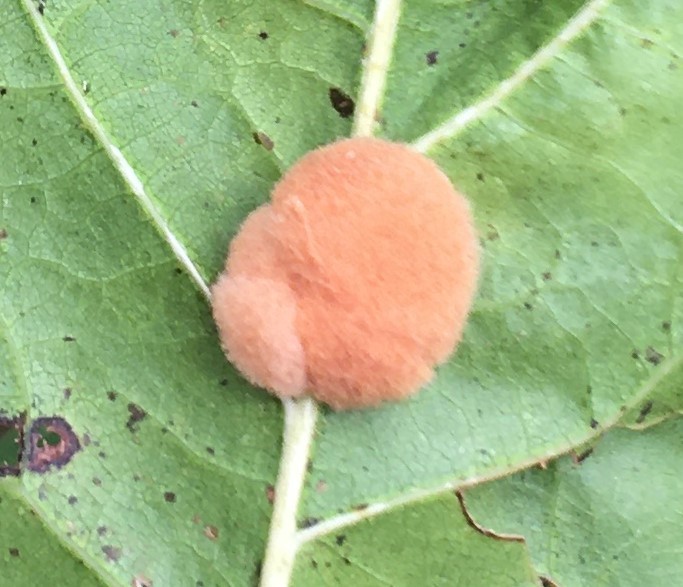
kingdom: Animalia
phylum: Arthropoda
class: Insecta
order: Hymenoptera
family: Cynipidae
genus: Callirhytis
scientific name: Callirhytis
